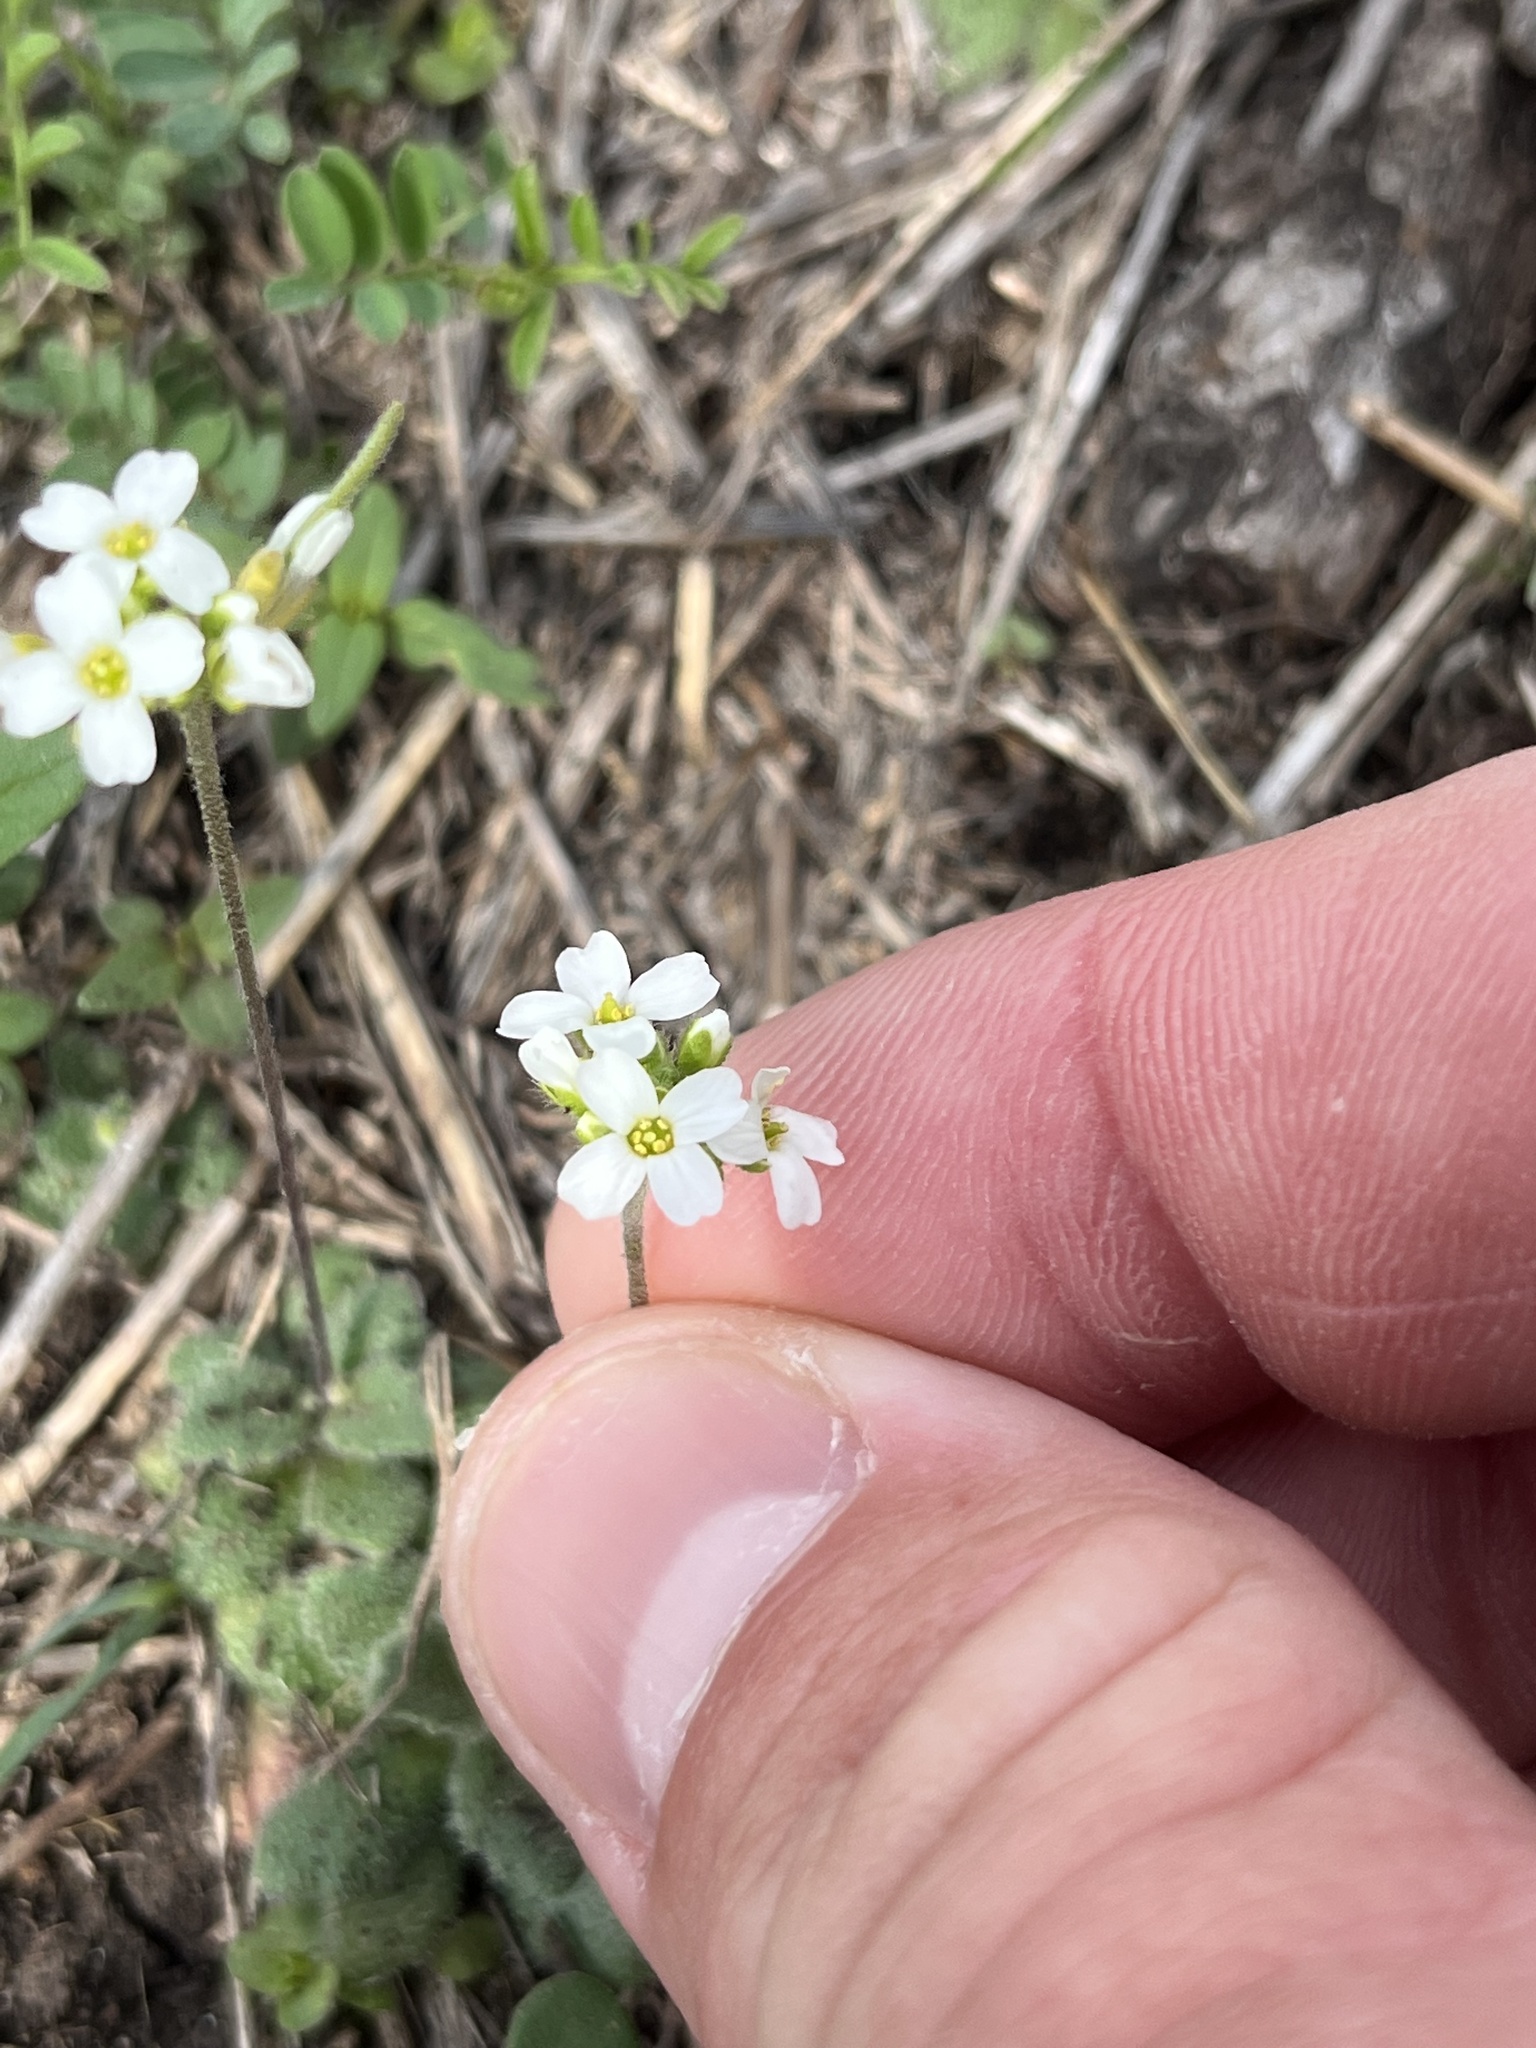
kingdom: Plantae
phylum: Tracheophyta
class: Magnoliopsida
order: Brassicales
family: Brassicaceae
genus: Tomostima
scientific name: Tomostima cuneifolia
